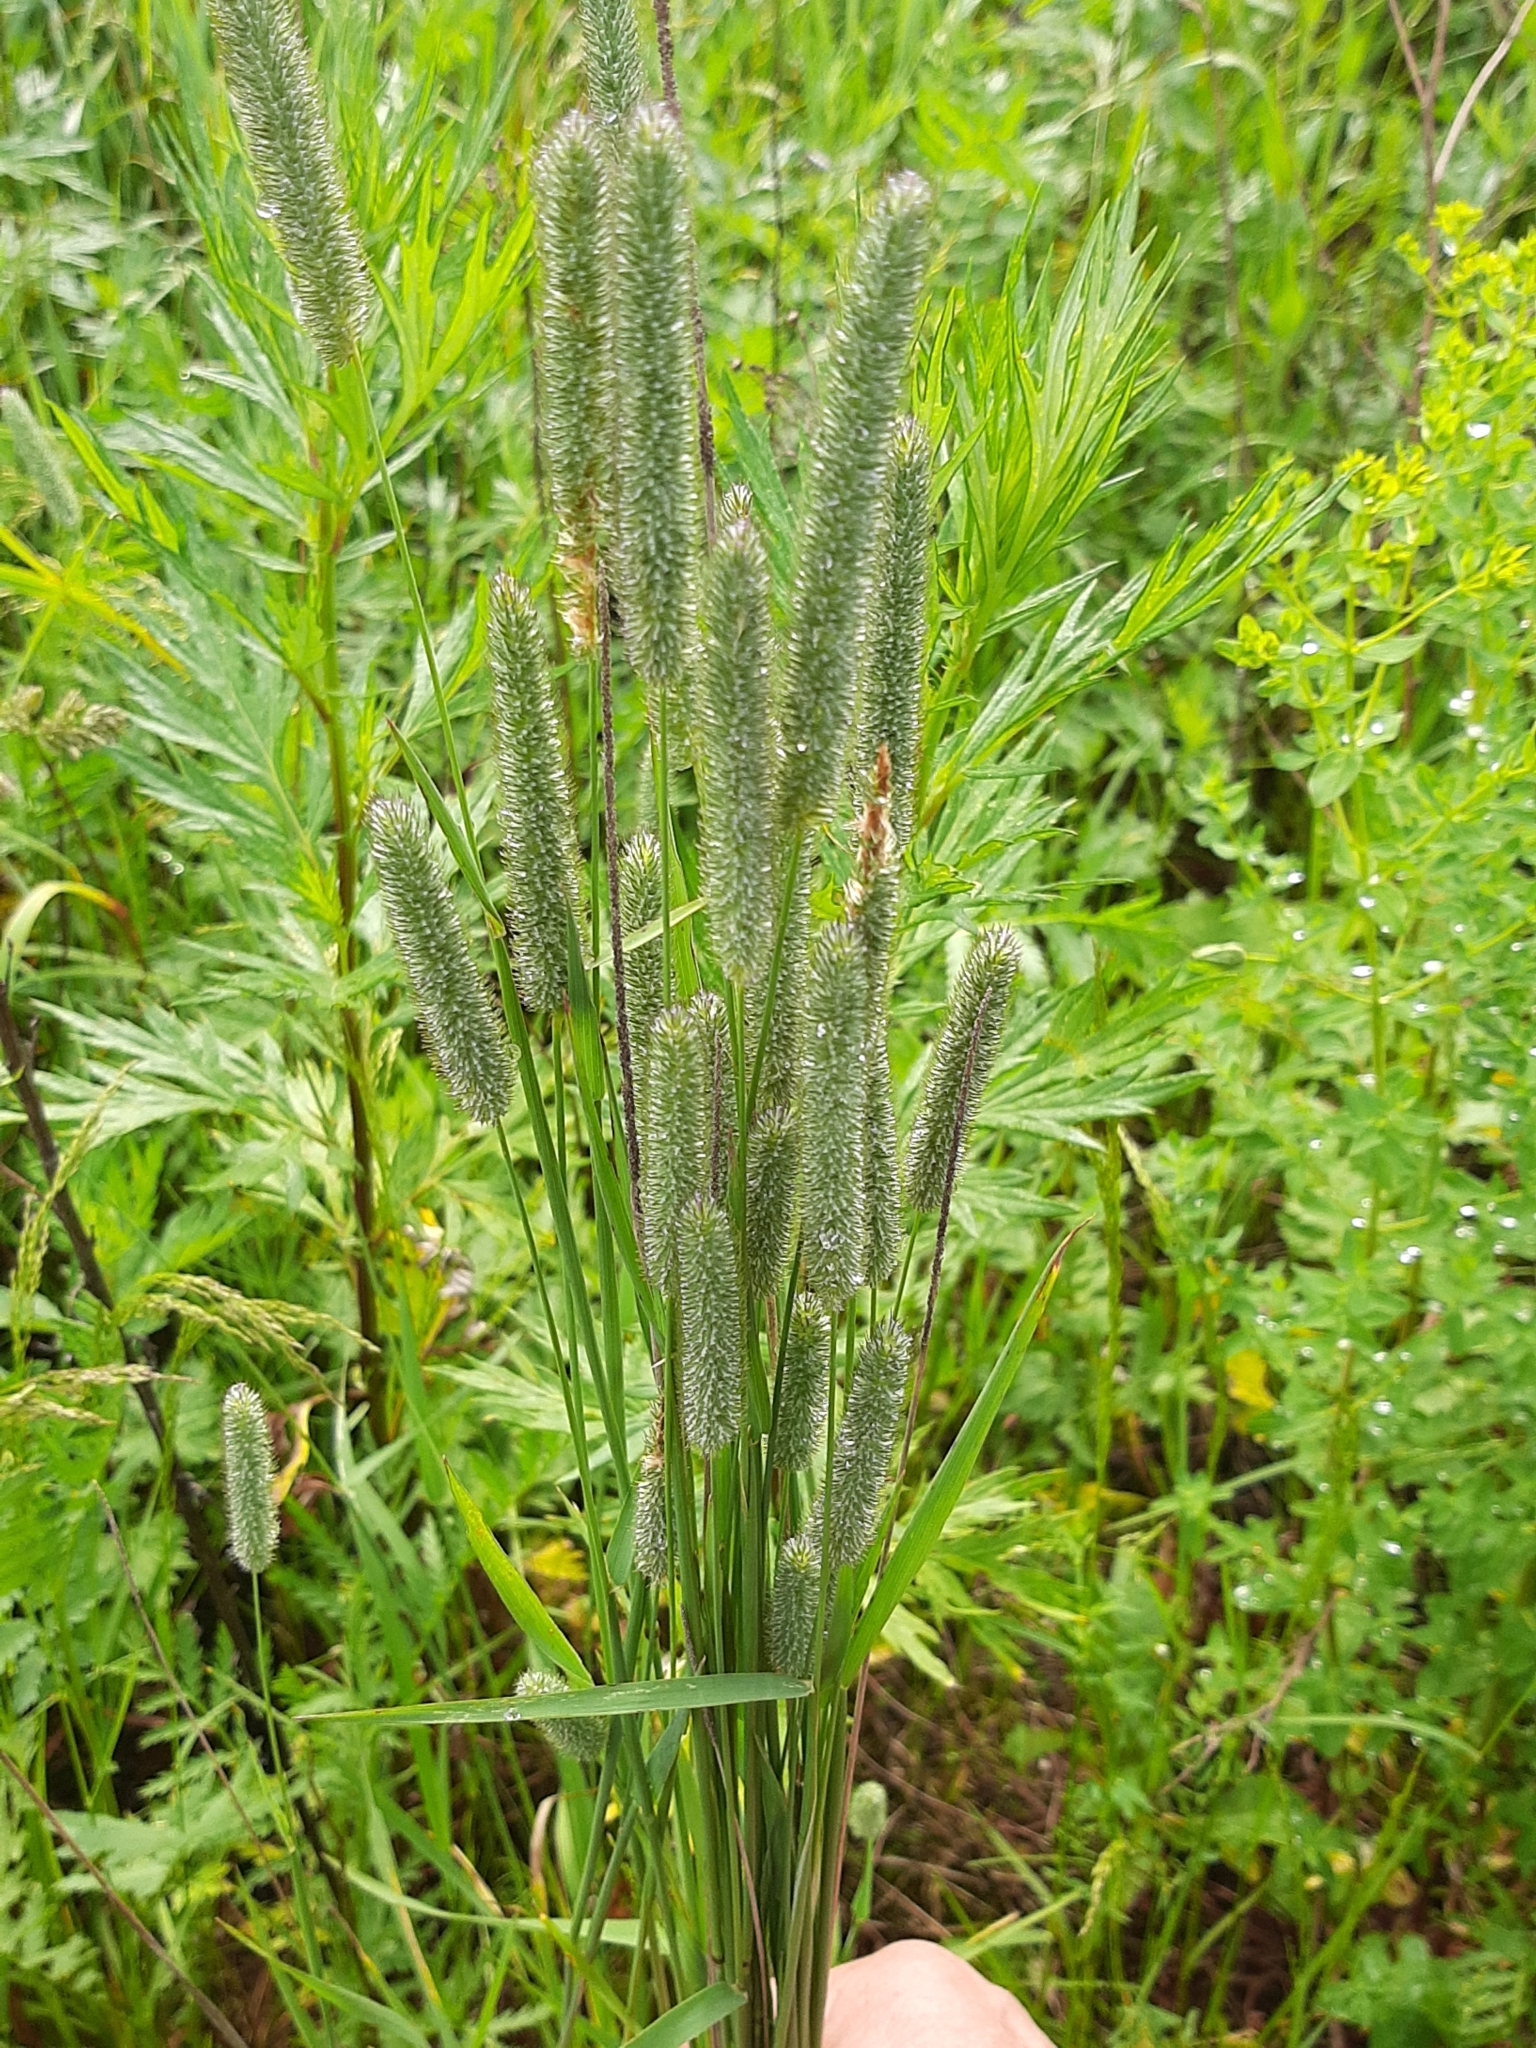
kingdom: Plantae
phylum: Tracheophyta
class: Liliopsida
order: Poales
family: Poaceae
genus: Phleum
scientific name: Phleum pratense
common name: Timothy grass
